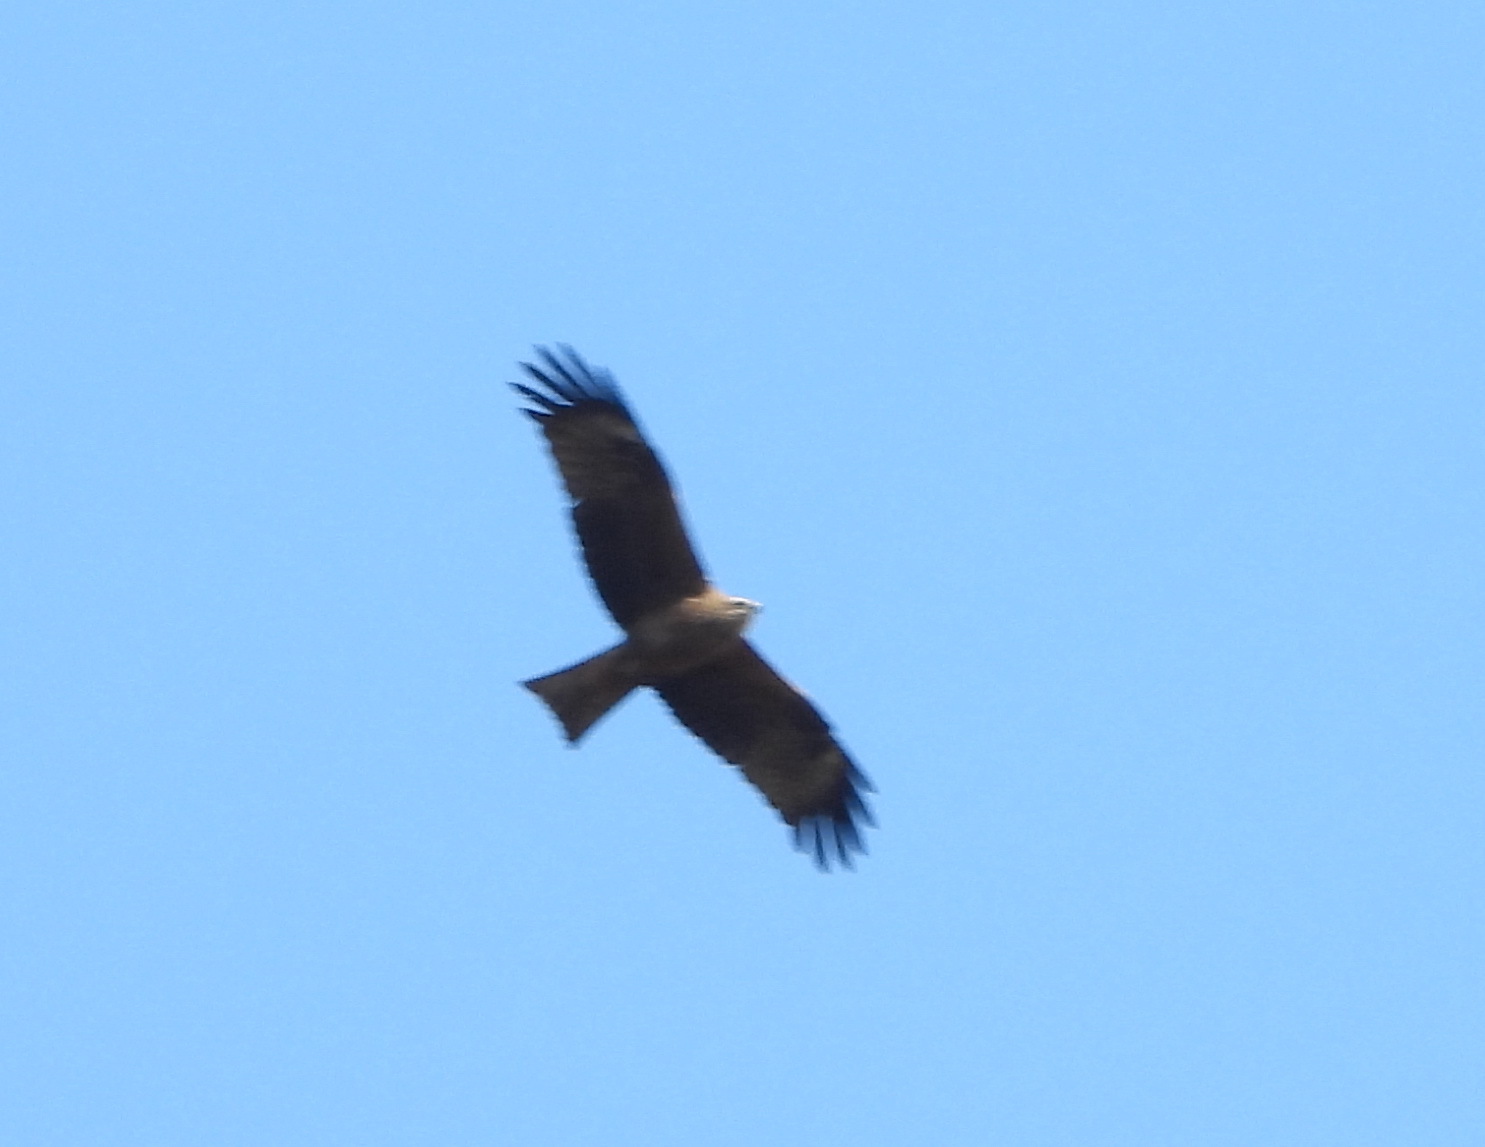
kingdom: Animalia
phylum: Chordata
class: Aves
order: Accipitriformes
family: Accipitridae
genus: Milvus
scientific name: Milvus migrans
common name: Black kite
